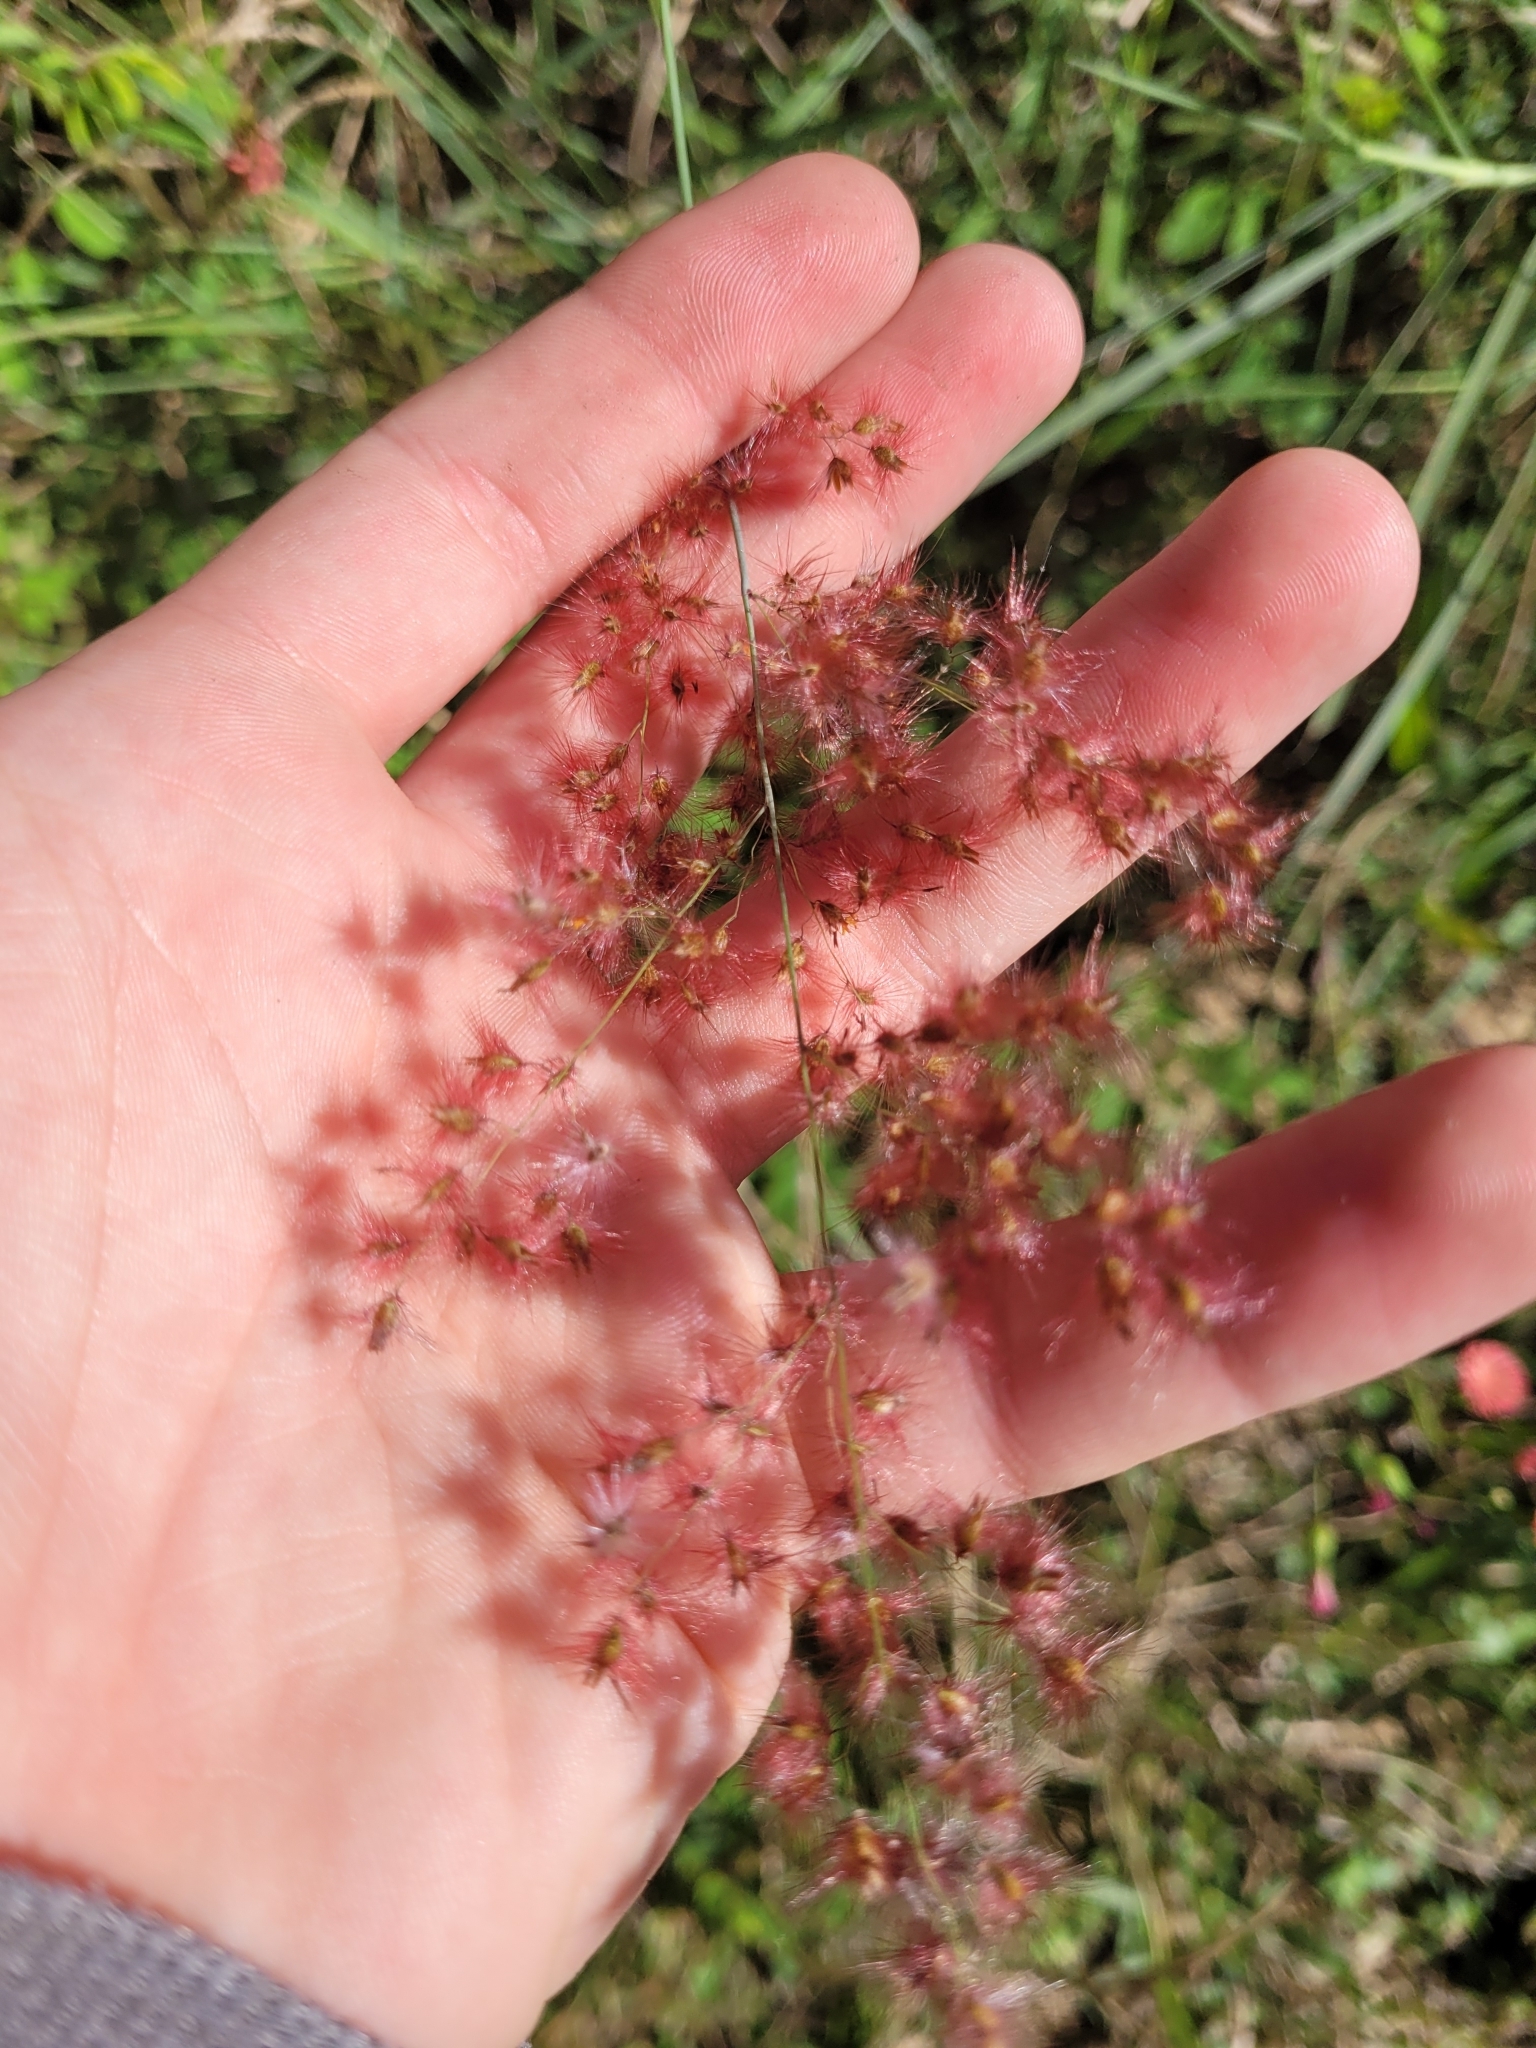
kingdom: Plantae
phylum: Tracheophyta
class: Liliopsida
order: Poales
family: Poaceae
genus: Melinis
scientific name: Melinis repens
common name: Rose natal grass
